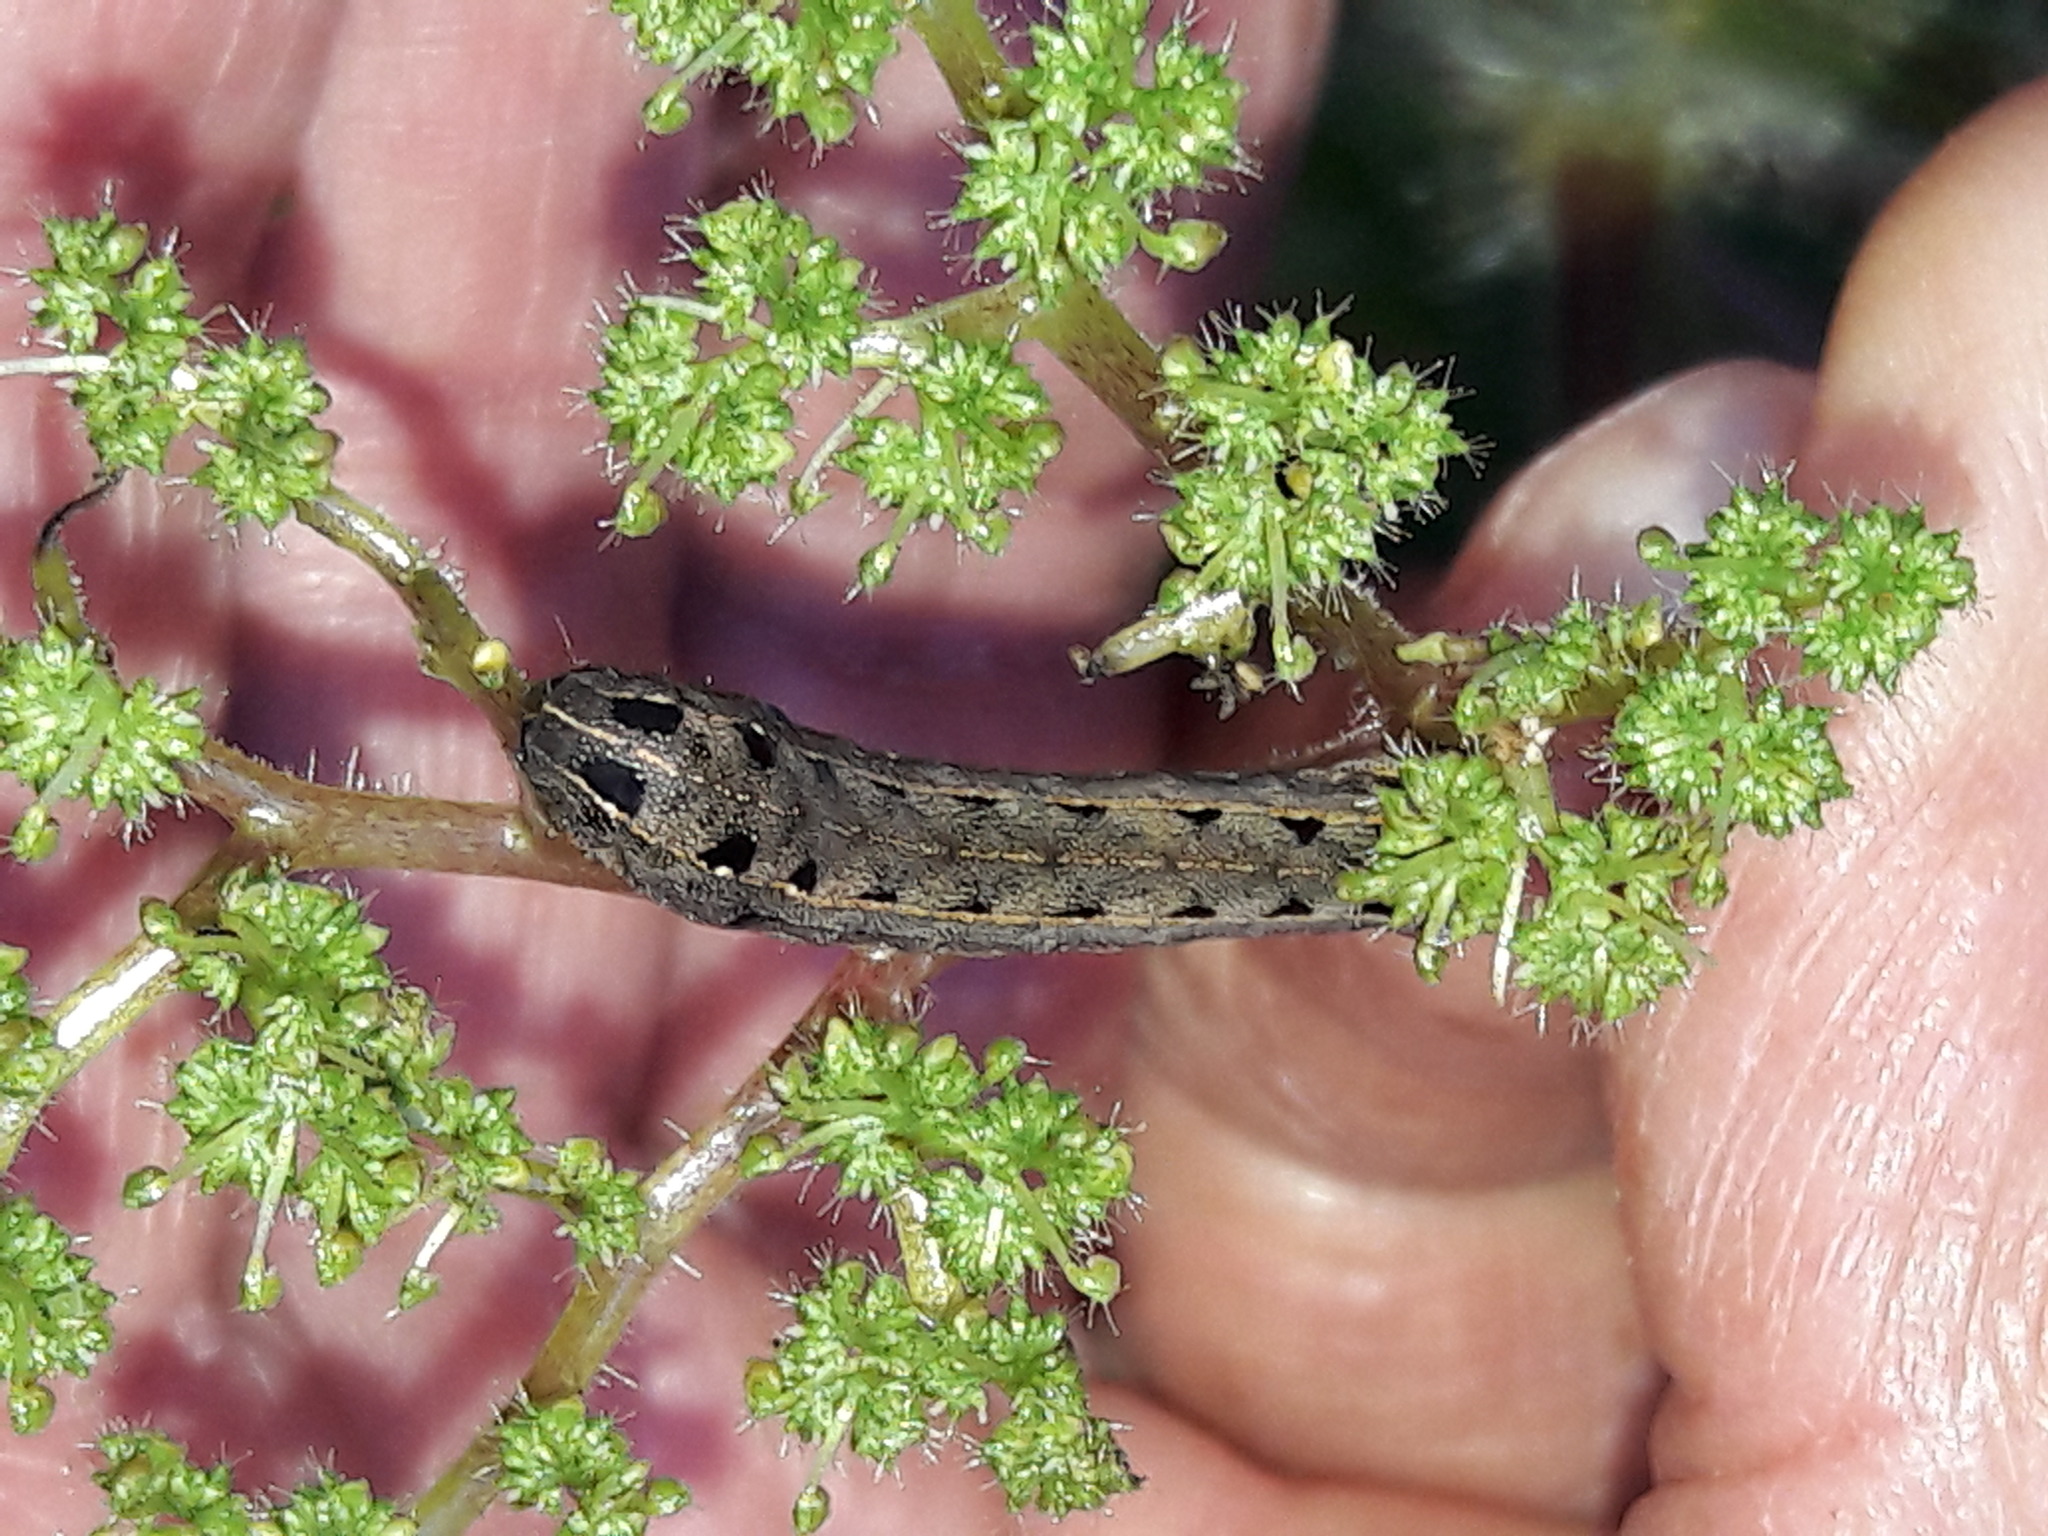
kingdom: Animalia
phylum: Arthropoda
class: Insecta
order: Lepidoptera
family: Noctuidae
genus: Spodoptera
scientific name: Spodoptera cosmioides
